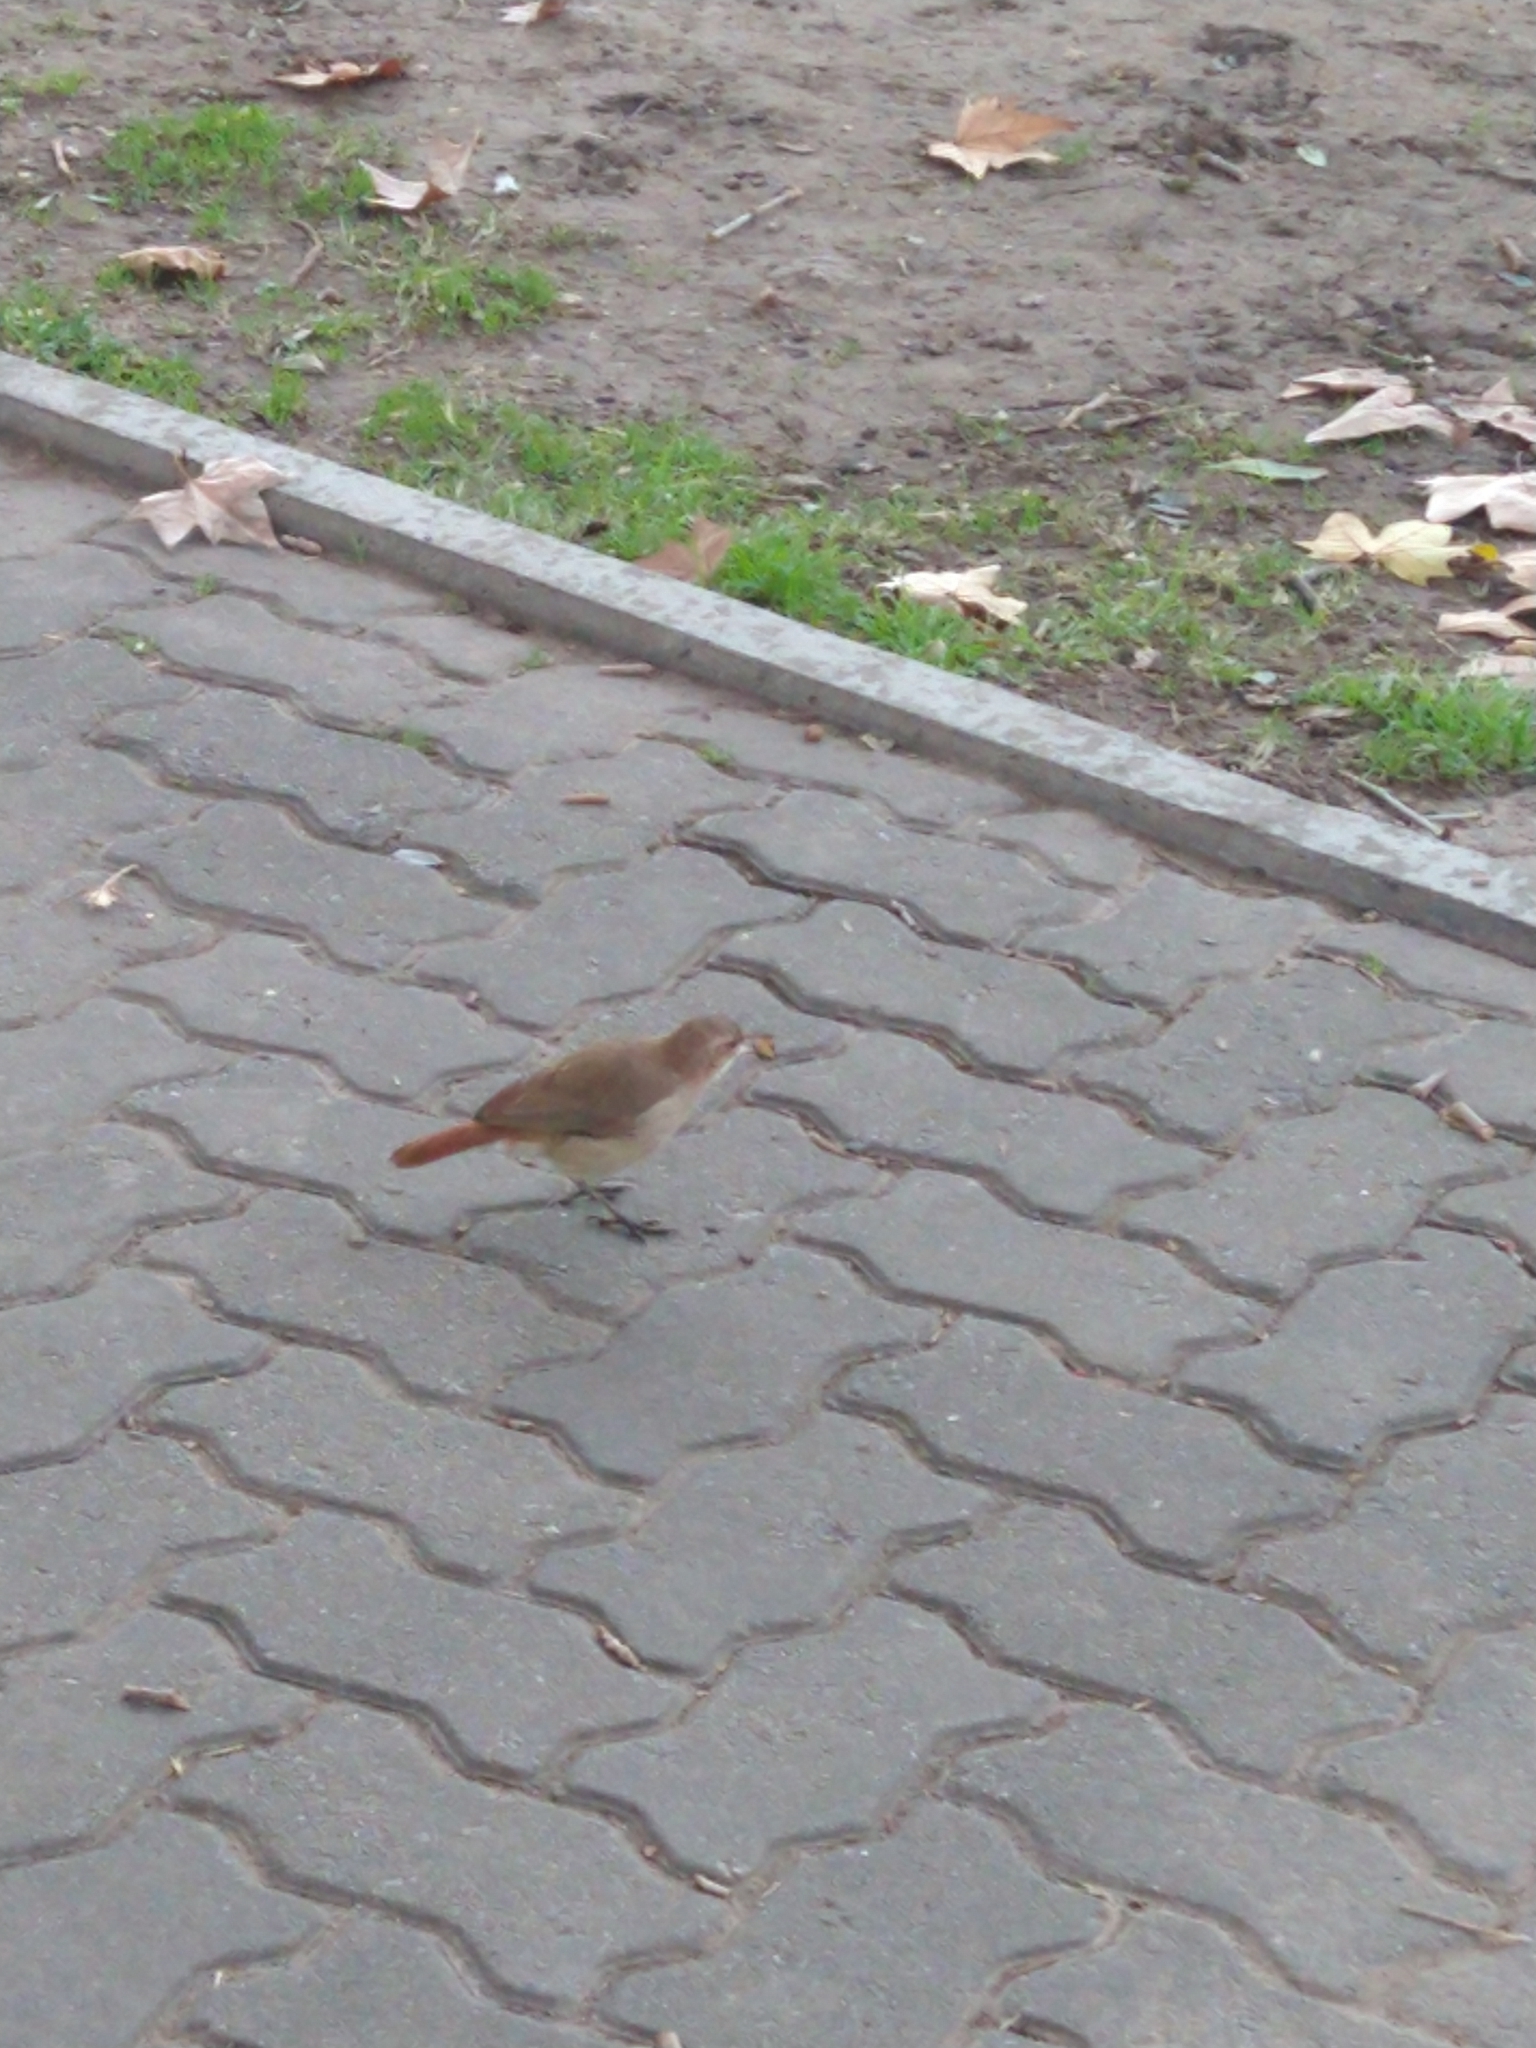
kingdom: Animalia
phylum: Chordata
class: Aves
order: Passeriformes
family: Furnariidae
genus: Furnarius
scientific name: Furnarius rufus
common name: Rufous hornero
